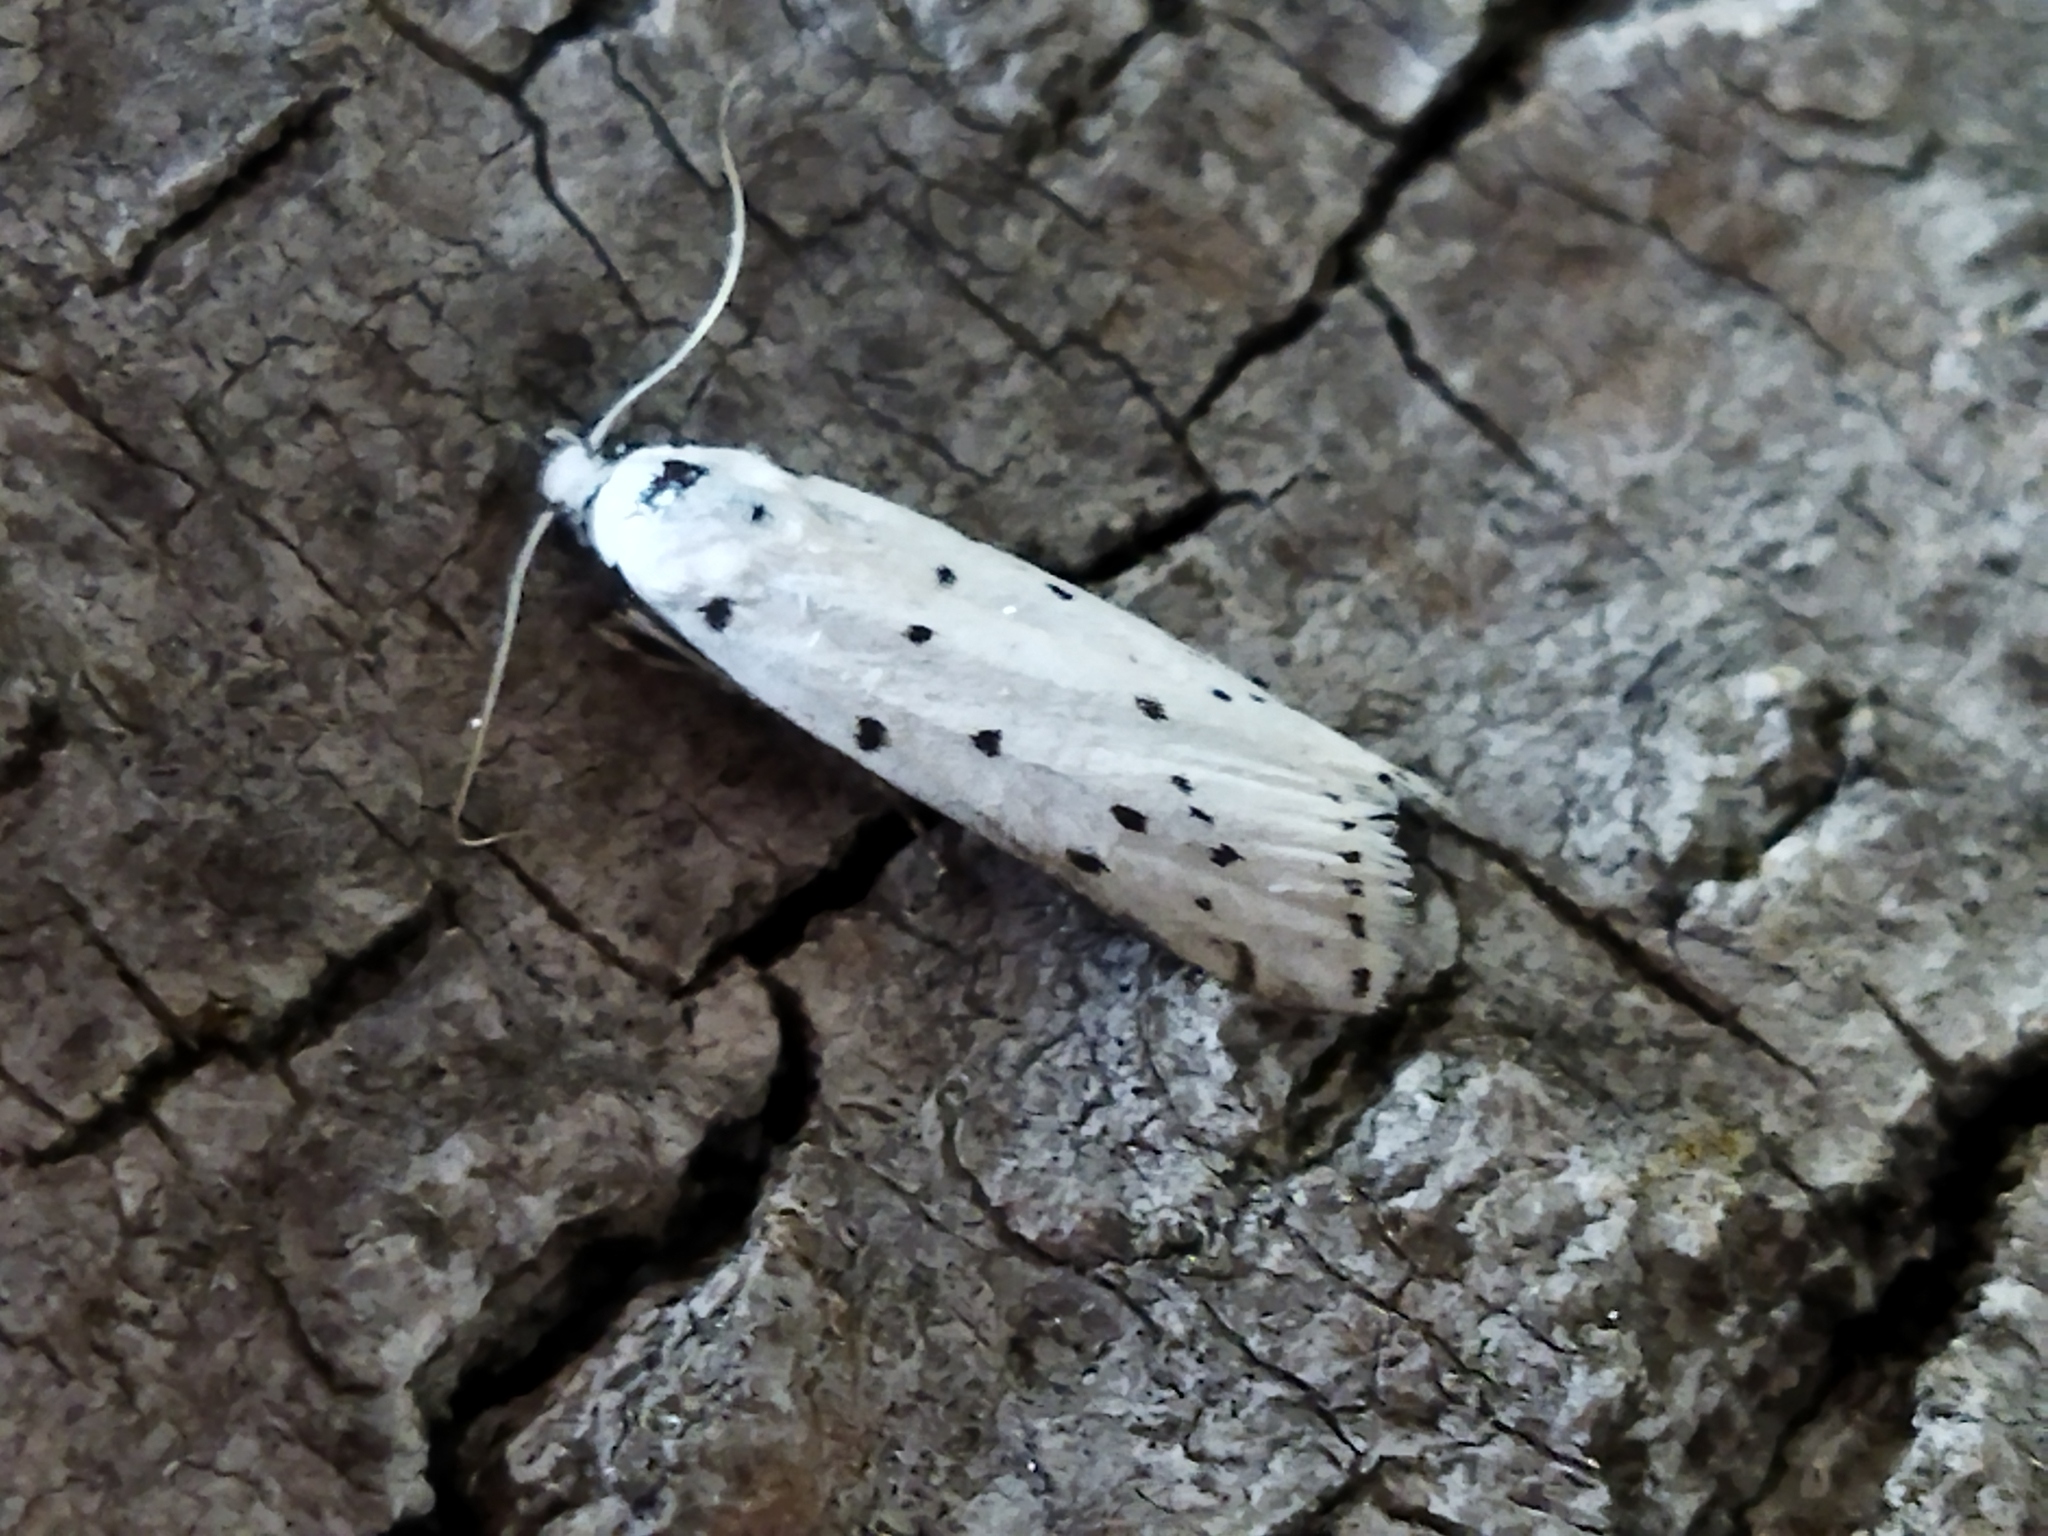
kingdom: Animalia
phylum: Arthropoda
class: Insecta
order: Lepidoptera
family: Pyralidae
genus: Myelois
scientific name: Myelois circumvoluta
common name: Thistle ermine
